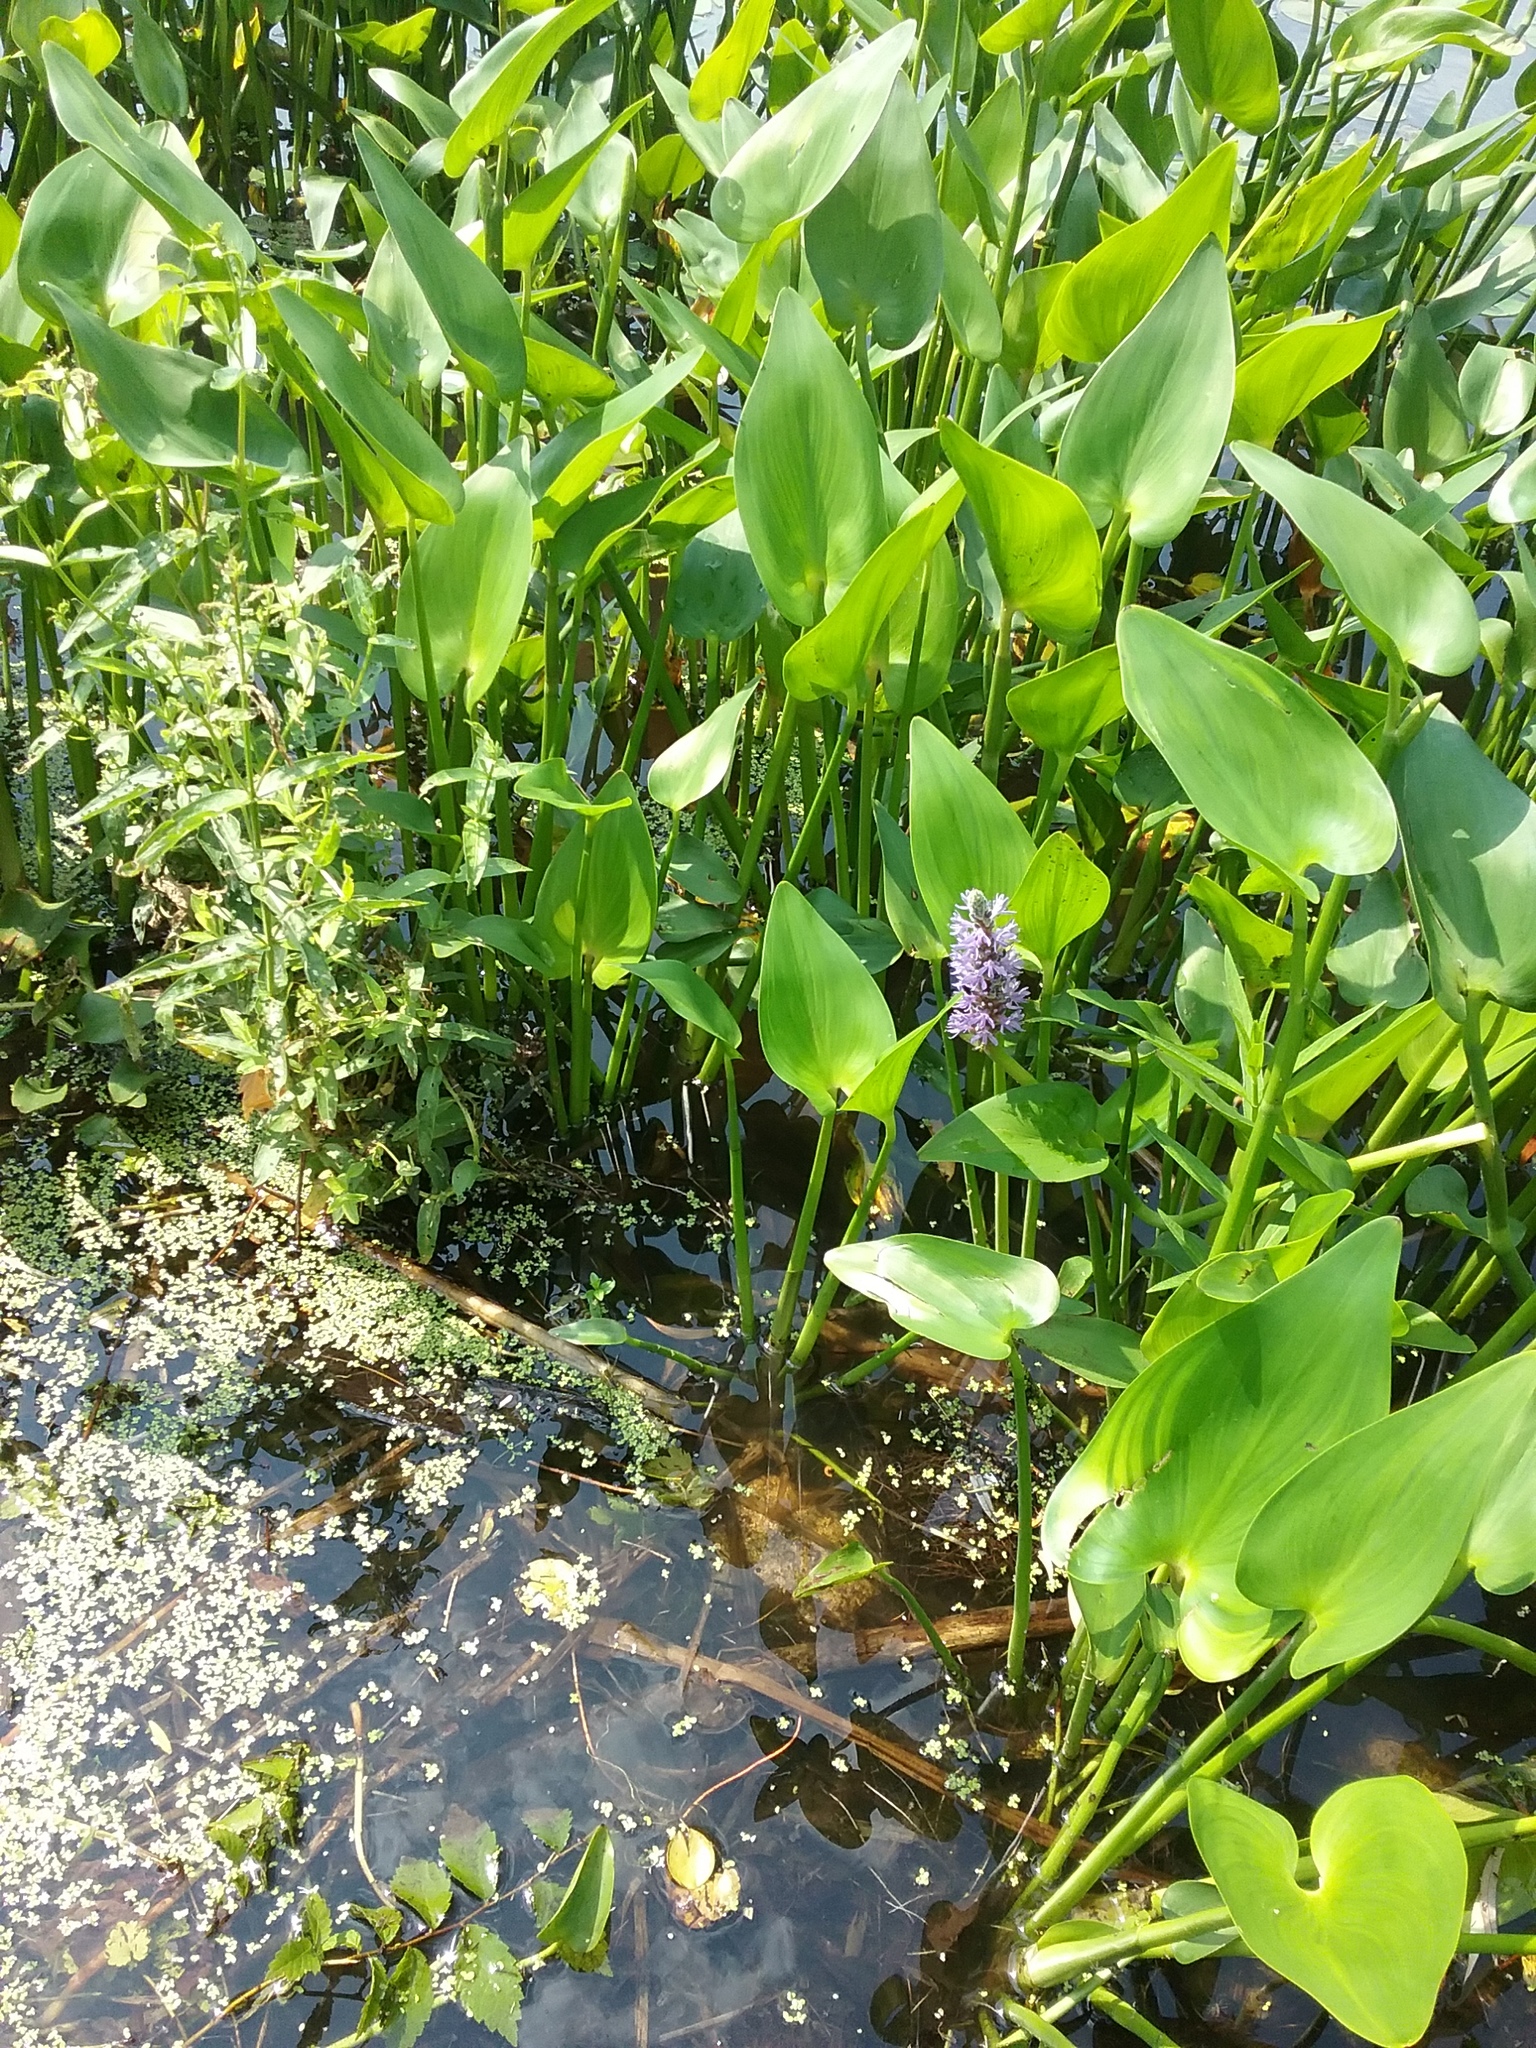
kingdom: Plantae
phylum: Tracheophyta
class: Liliopsida
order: Commelinales
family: Pontederiaceae
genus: Pontederia
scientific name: Pontederia cordata
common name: Pickerelweed
